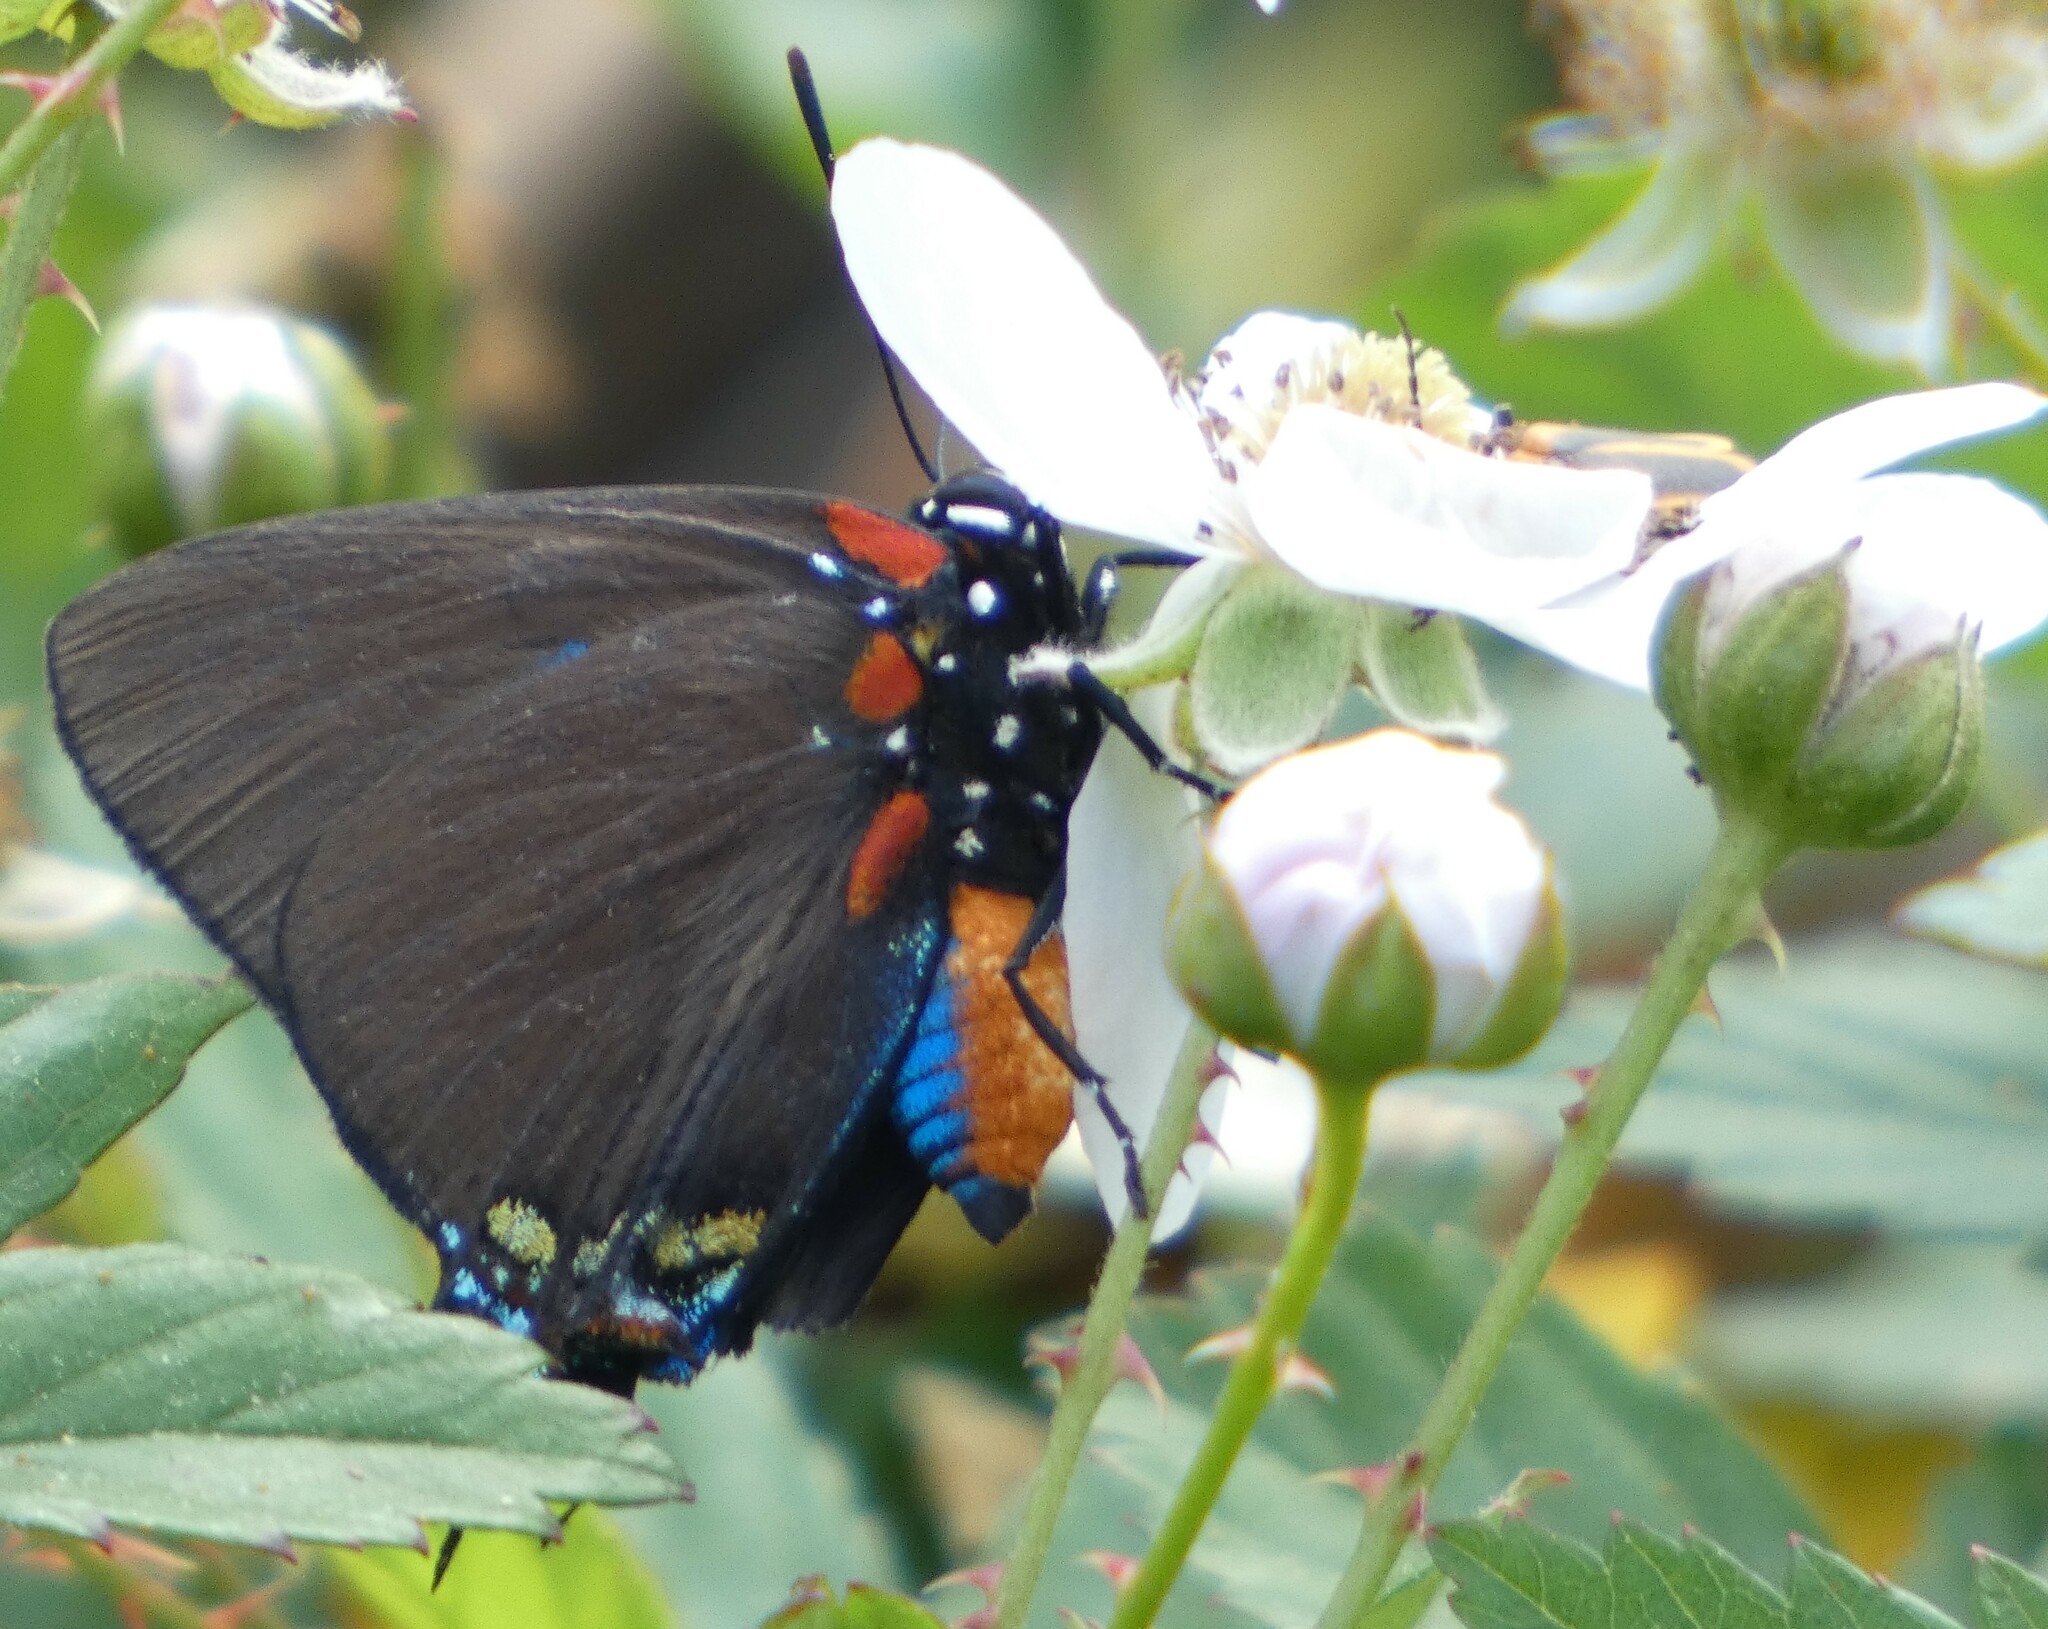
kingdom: Animalia
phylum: Arthropoda
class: Insecta
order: Lepidoptera
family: Lycaenidae
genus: Atlides
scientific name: Atlides halesus
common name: Great purple hairstreak
